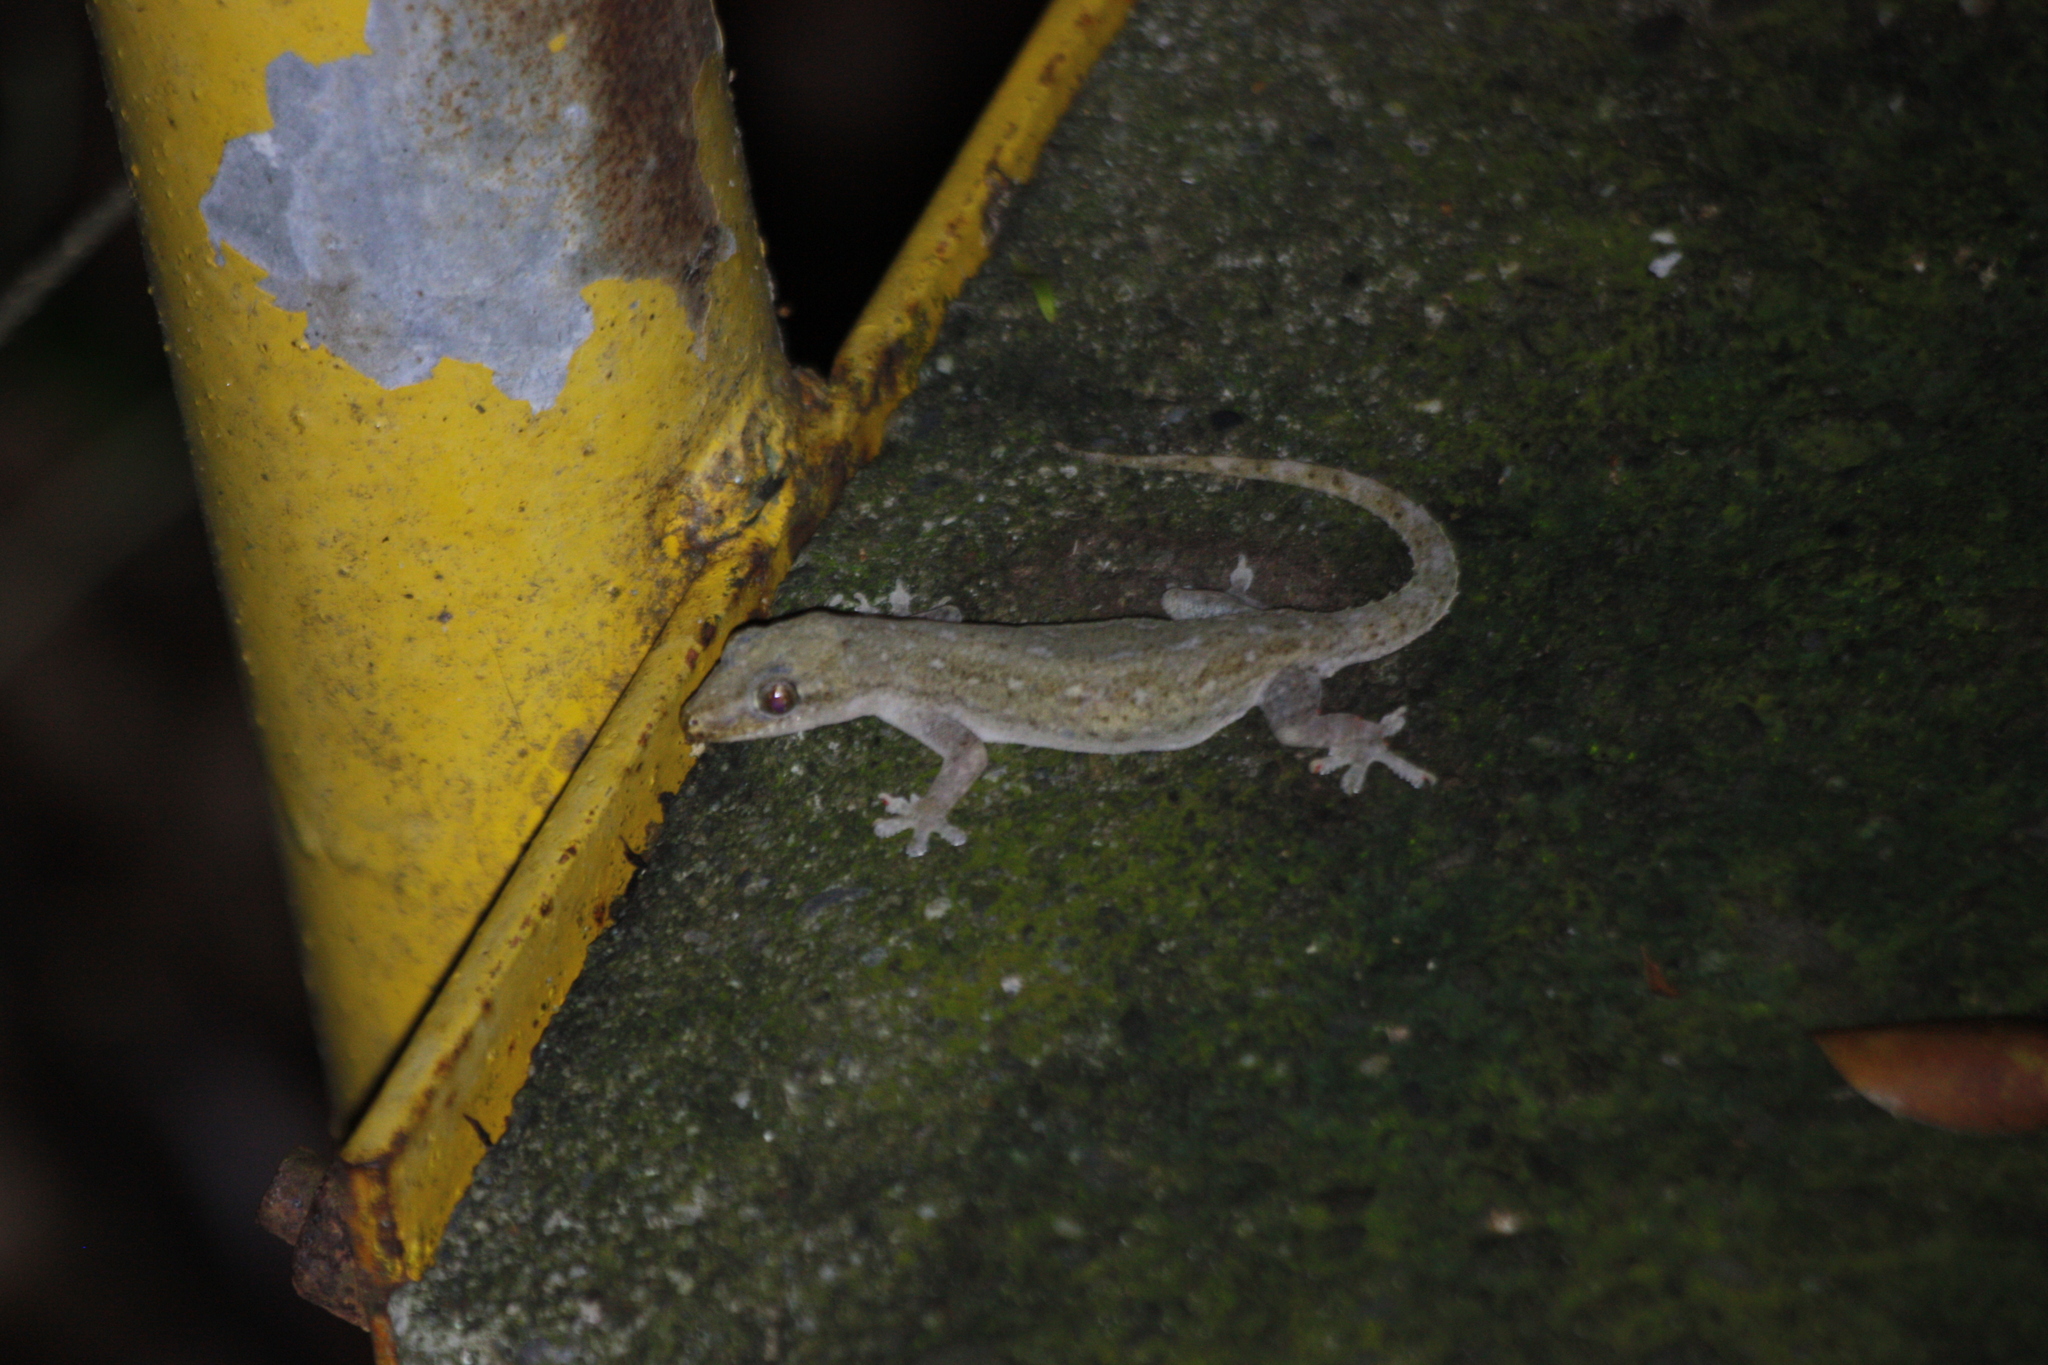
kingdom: Animalia
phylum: Chordata
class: Squamata
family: Gekkonidae
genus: Hemidactylus
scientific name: Hemidactylus frenatus
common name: Common house gecko
